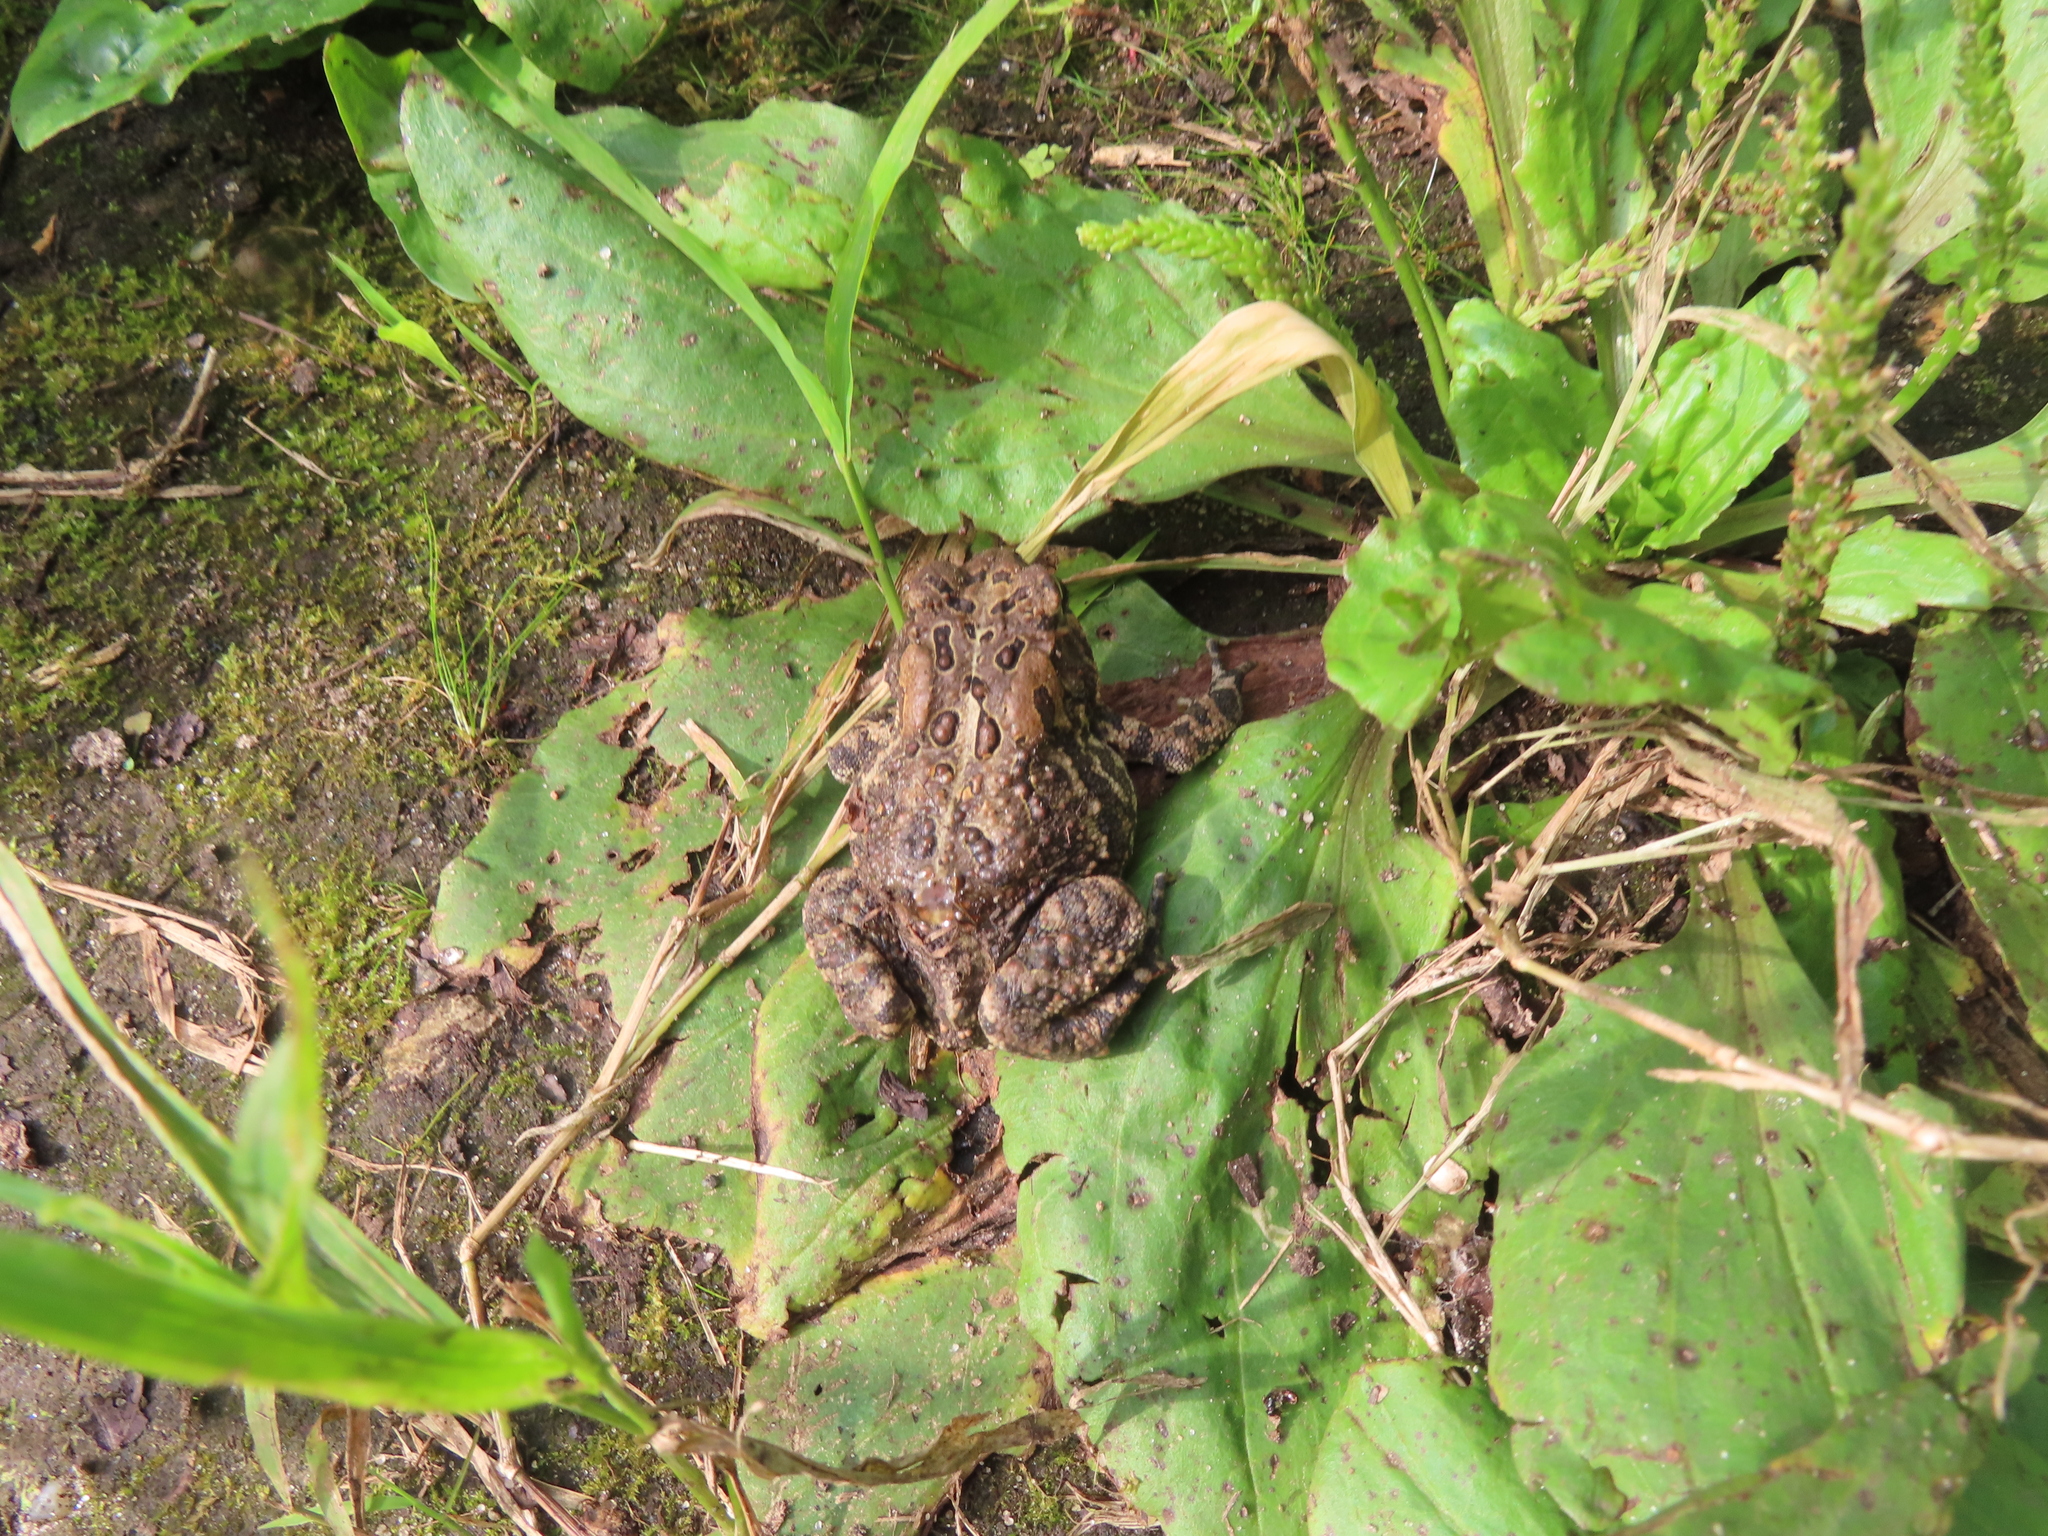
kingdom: Animalia
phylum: Chordata
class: Amphibia
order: Anura
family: Bufonidae
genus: Anaxyrus
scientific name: Anaxyrus americanus
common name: American toad
